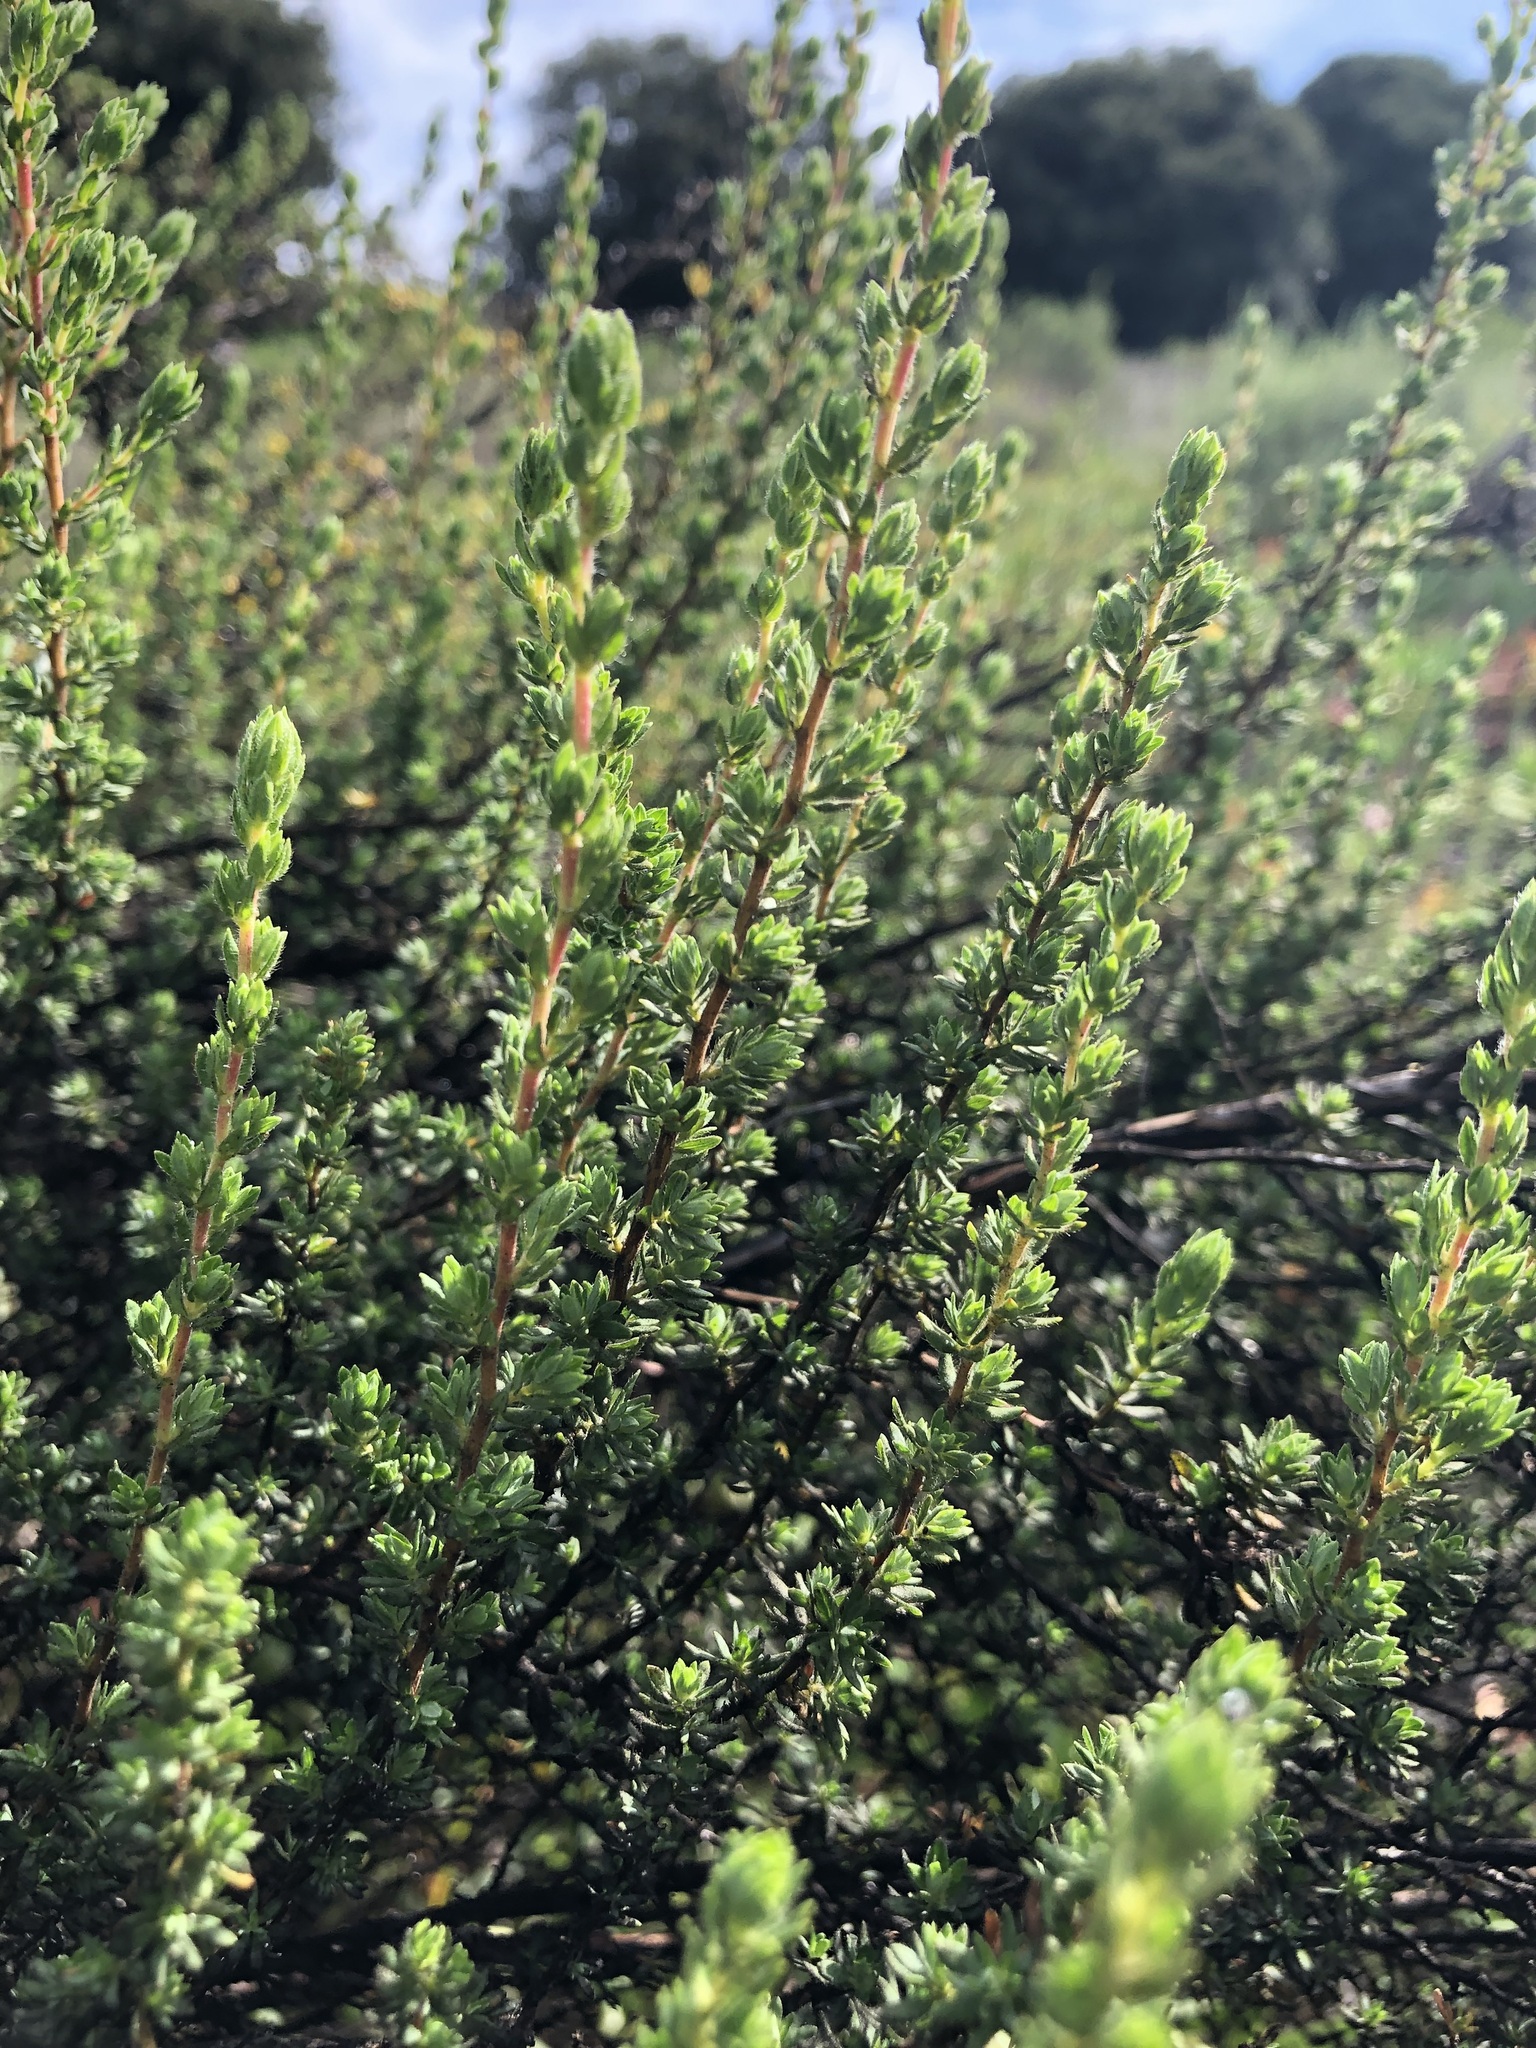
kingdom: Plantae
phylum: Tracheophyta
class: Magnoliopsida
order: Rosales
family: Rosaceae
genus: Cliffortia
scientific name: Cliffortia polygonifolia
